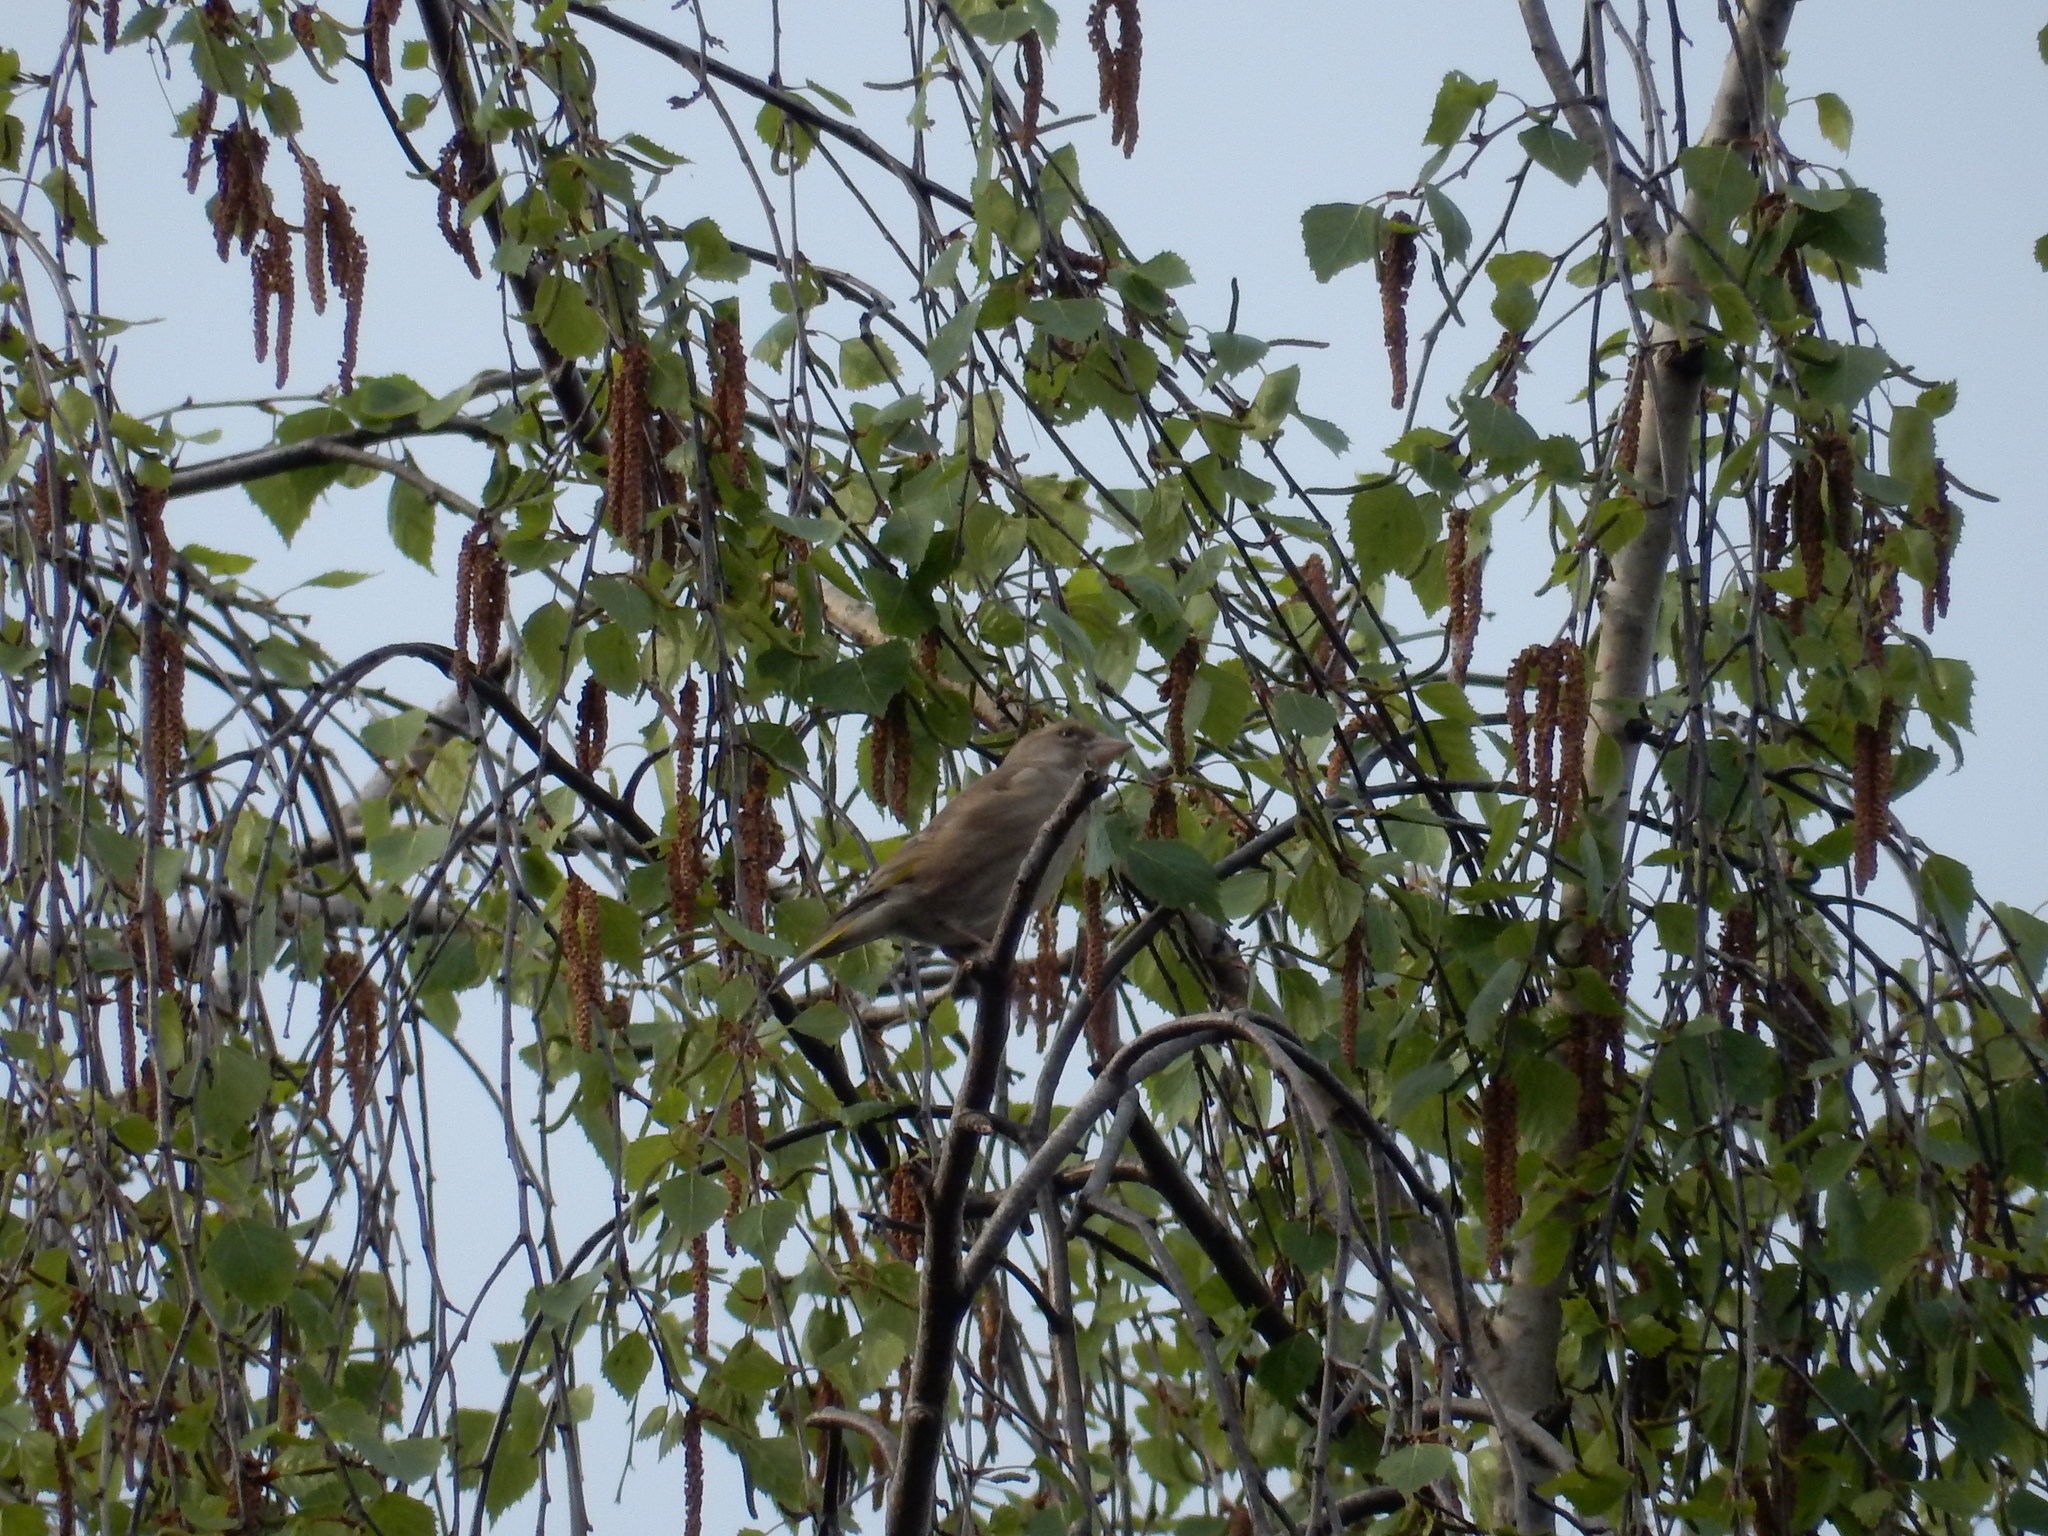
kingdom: Plantae
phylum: Tracheophyta
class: Liliopsida
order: Poales
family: Poaceae
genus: Chloris
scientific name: Chloris chloris
